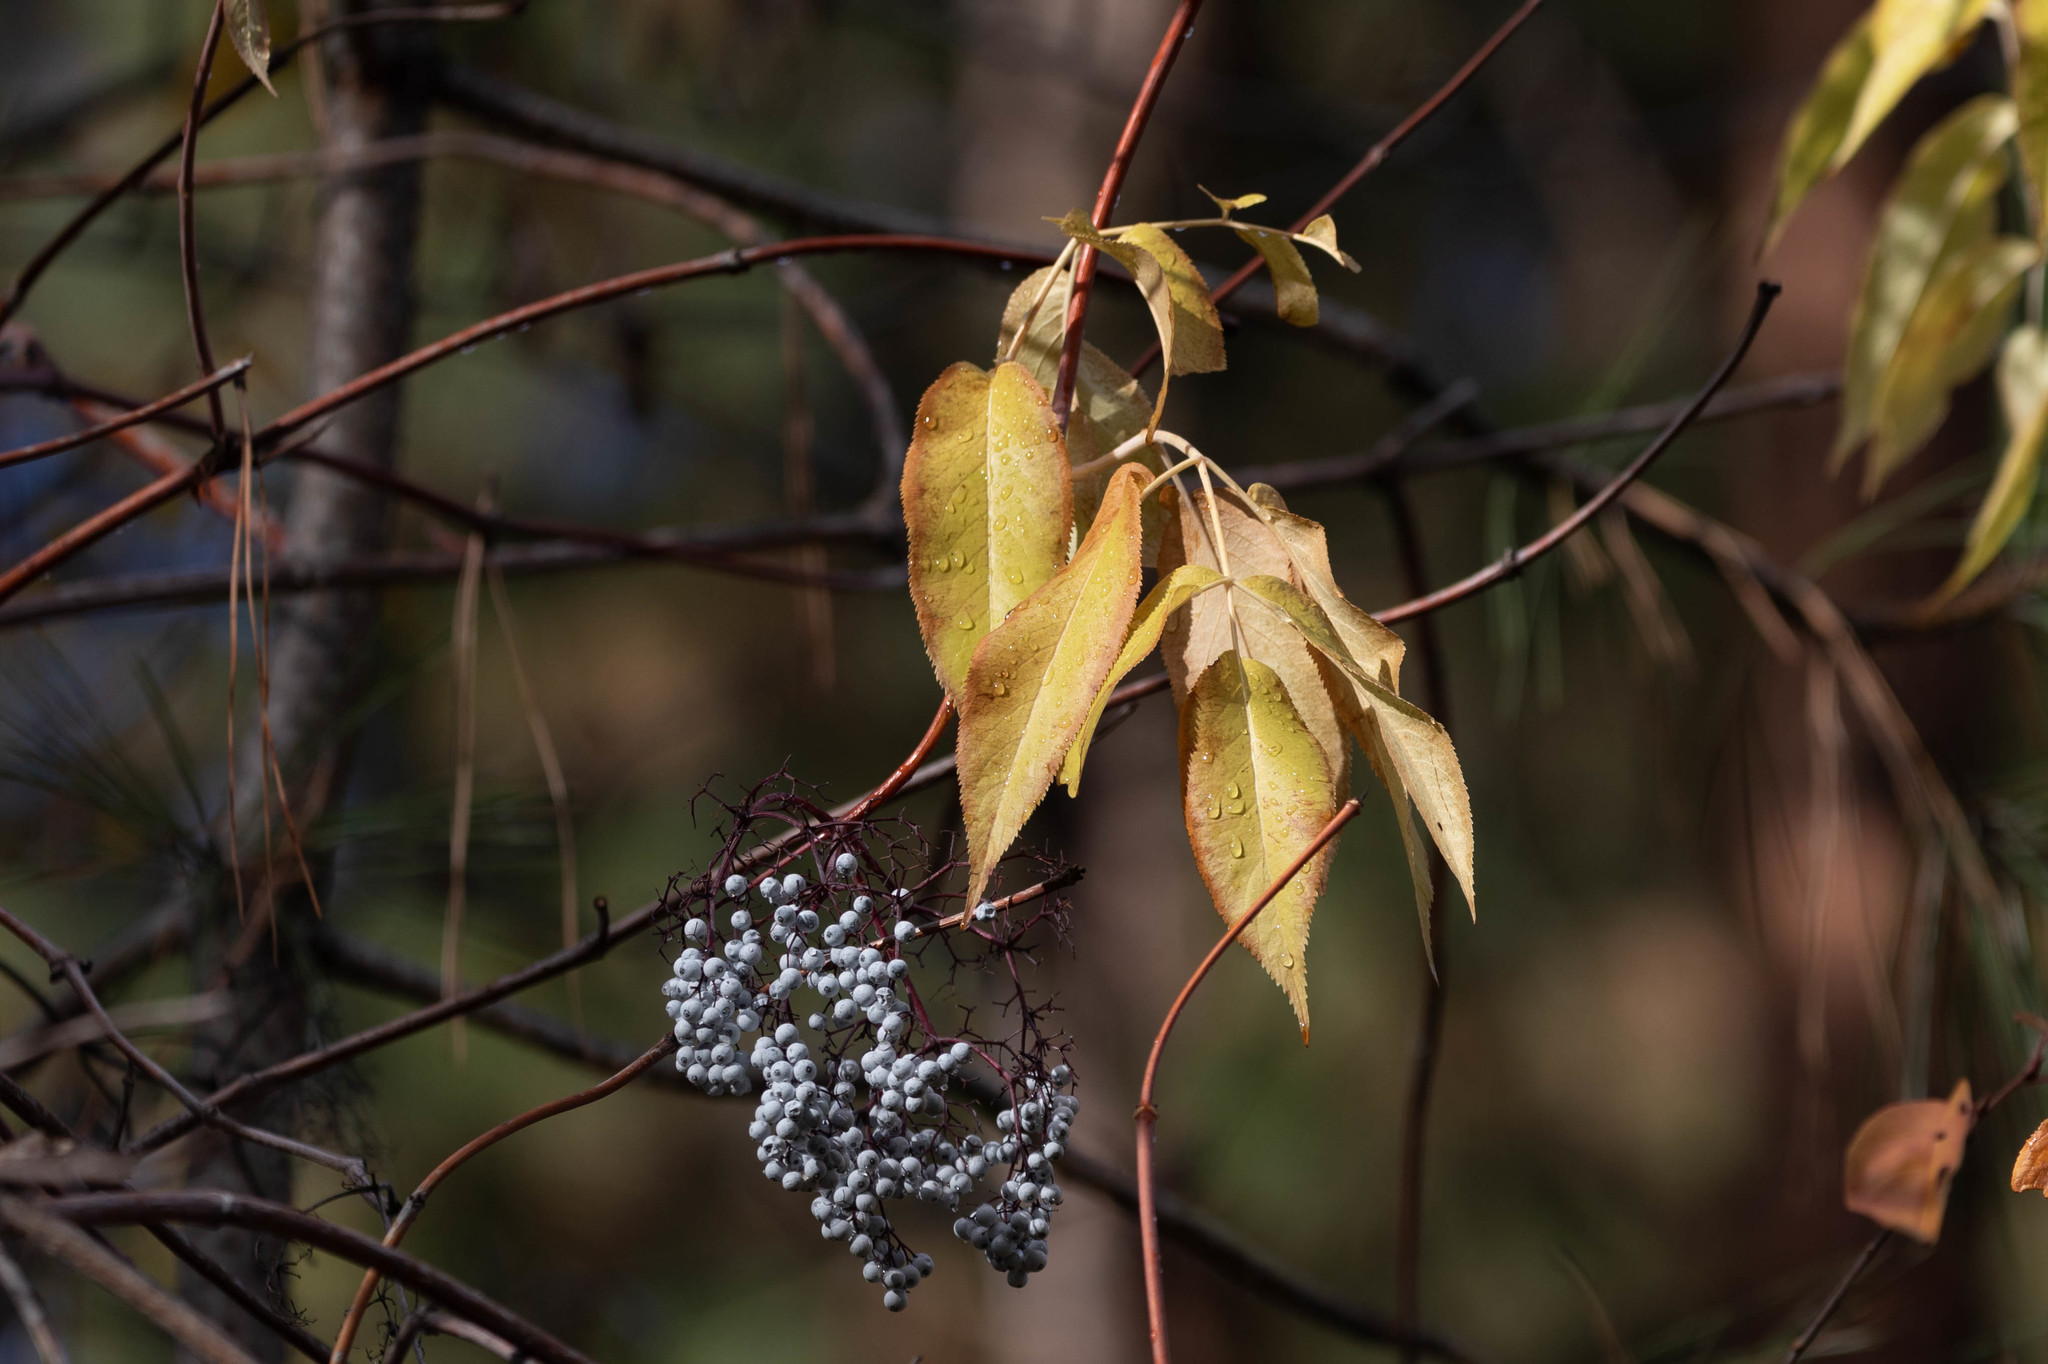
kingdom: Plantae
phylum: Tracheophyta
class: Magnoliopsida
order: Dipsacales
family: Viburnaceae
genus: Sambucus
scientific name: Sambucus cerulea
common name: Blue elder
